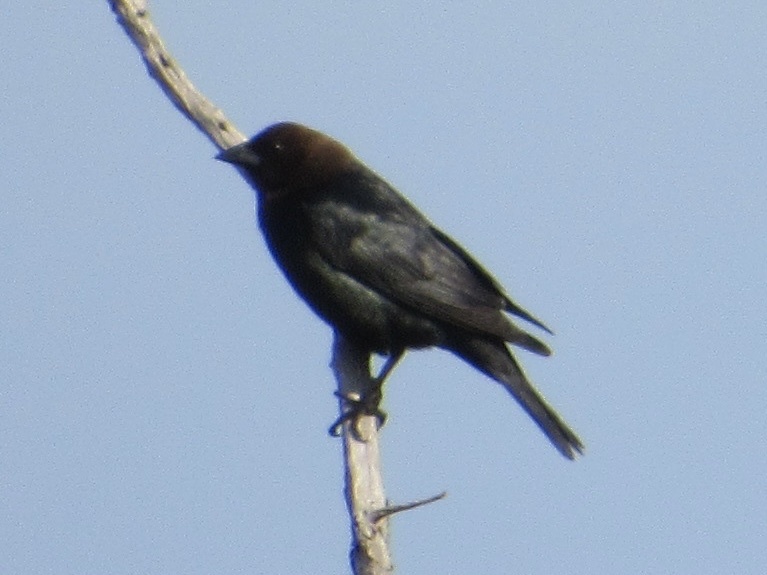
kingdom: Animalia
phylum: Chordata
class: Aves
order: Passeriformes
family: Icteridae
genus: Molothrus
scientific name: Molothrus ater
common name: Brown-headed cowbird
